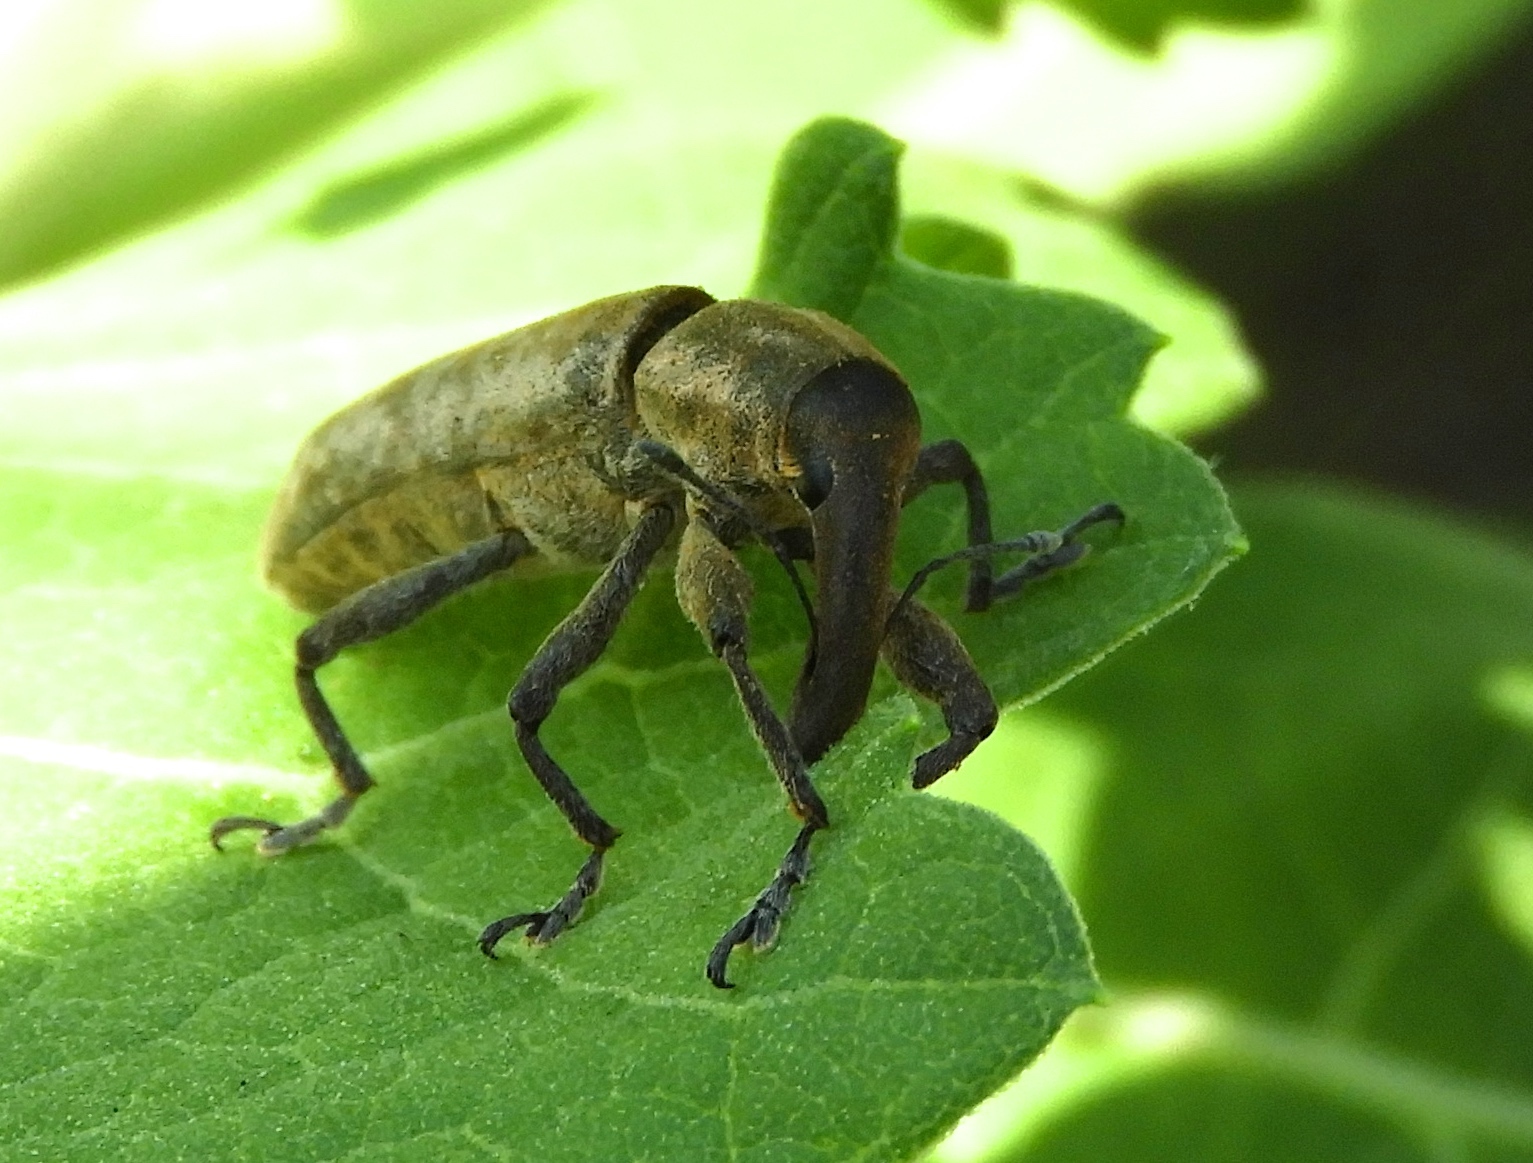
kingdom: Animalia
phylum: Arthropoda
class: Insecta
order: Coleoptera
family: Curculionidae
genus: Lixus
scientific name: Lixus
